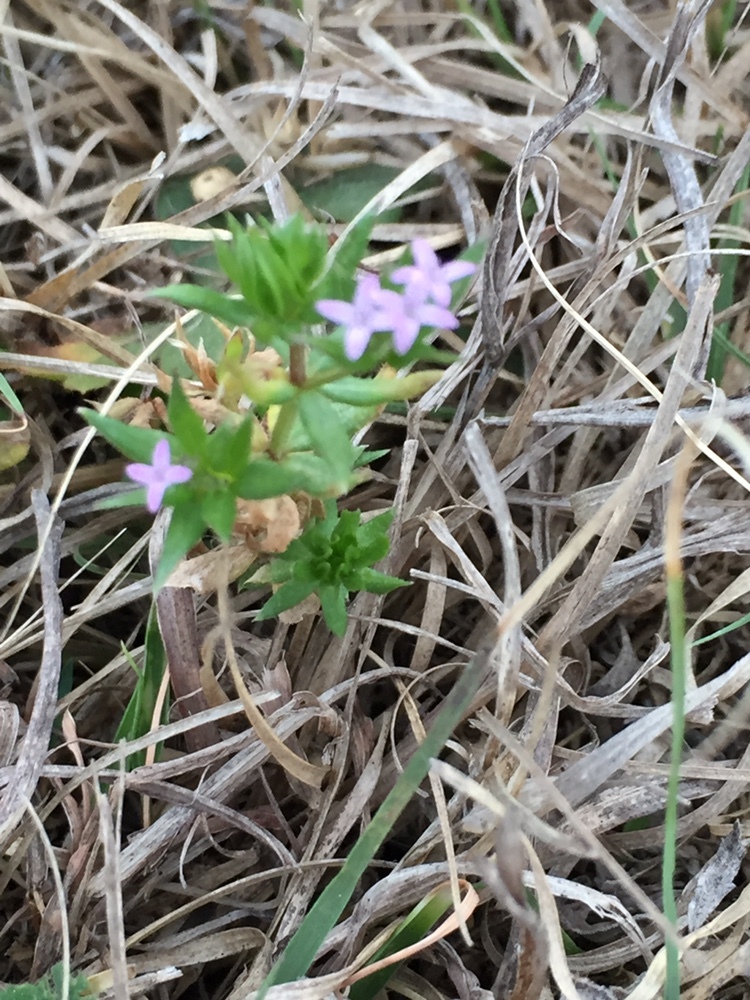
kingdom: Plantae
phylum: Tracheophyta
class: Magnoliopsida
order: Gentianales
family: Rubiaceae
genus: Sherardia
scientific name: Sherardia arvensis
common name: Field madder
